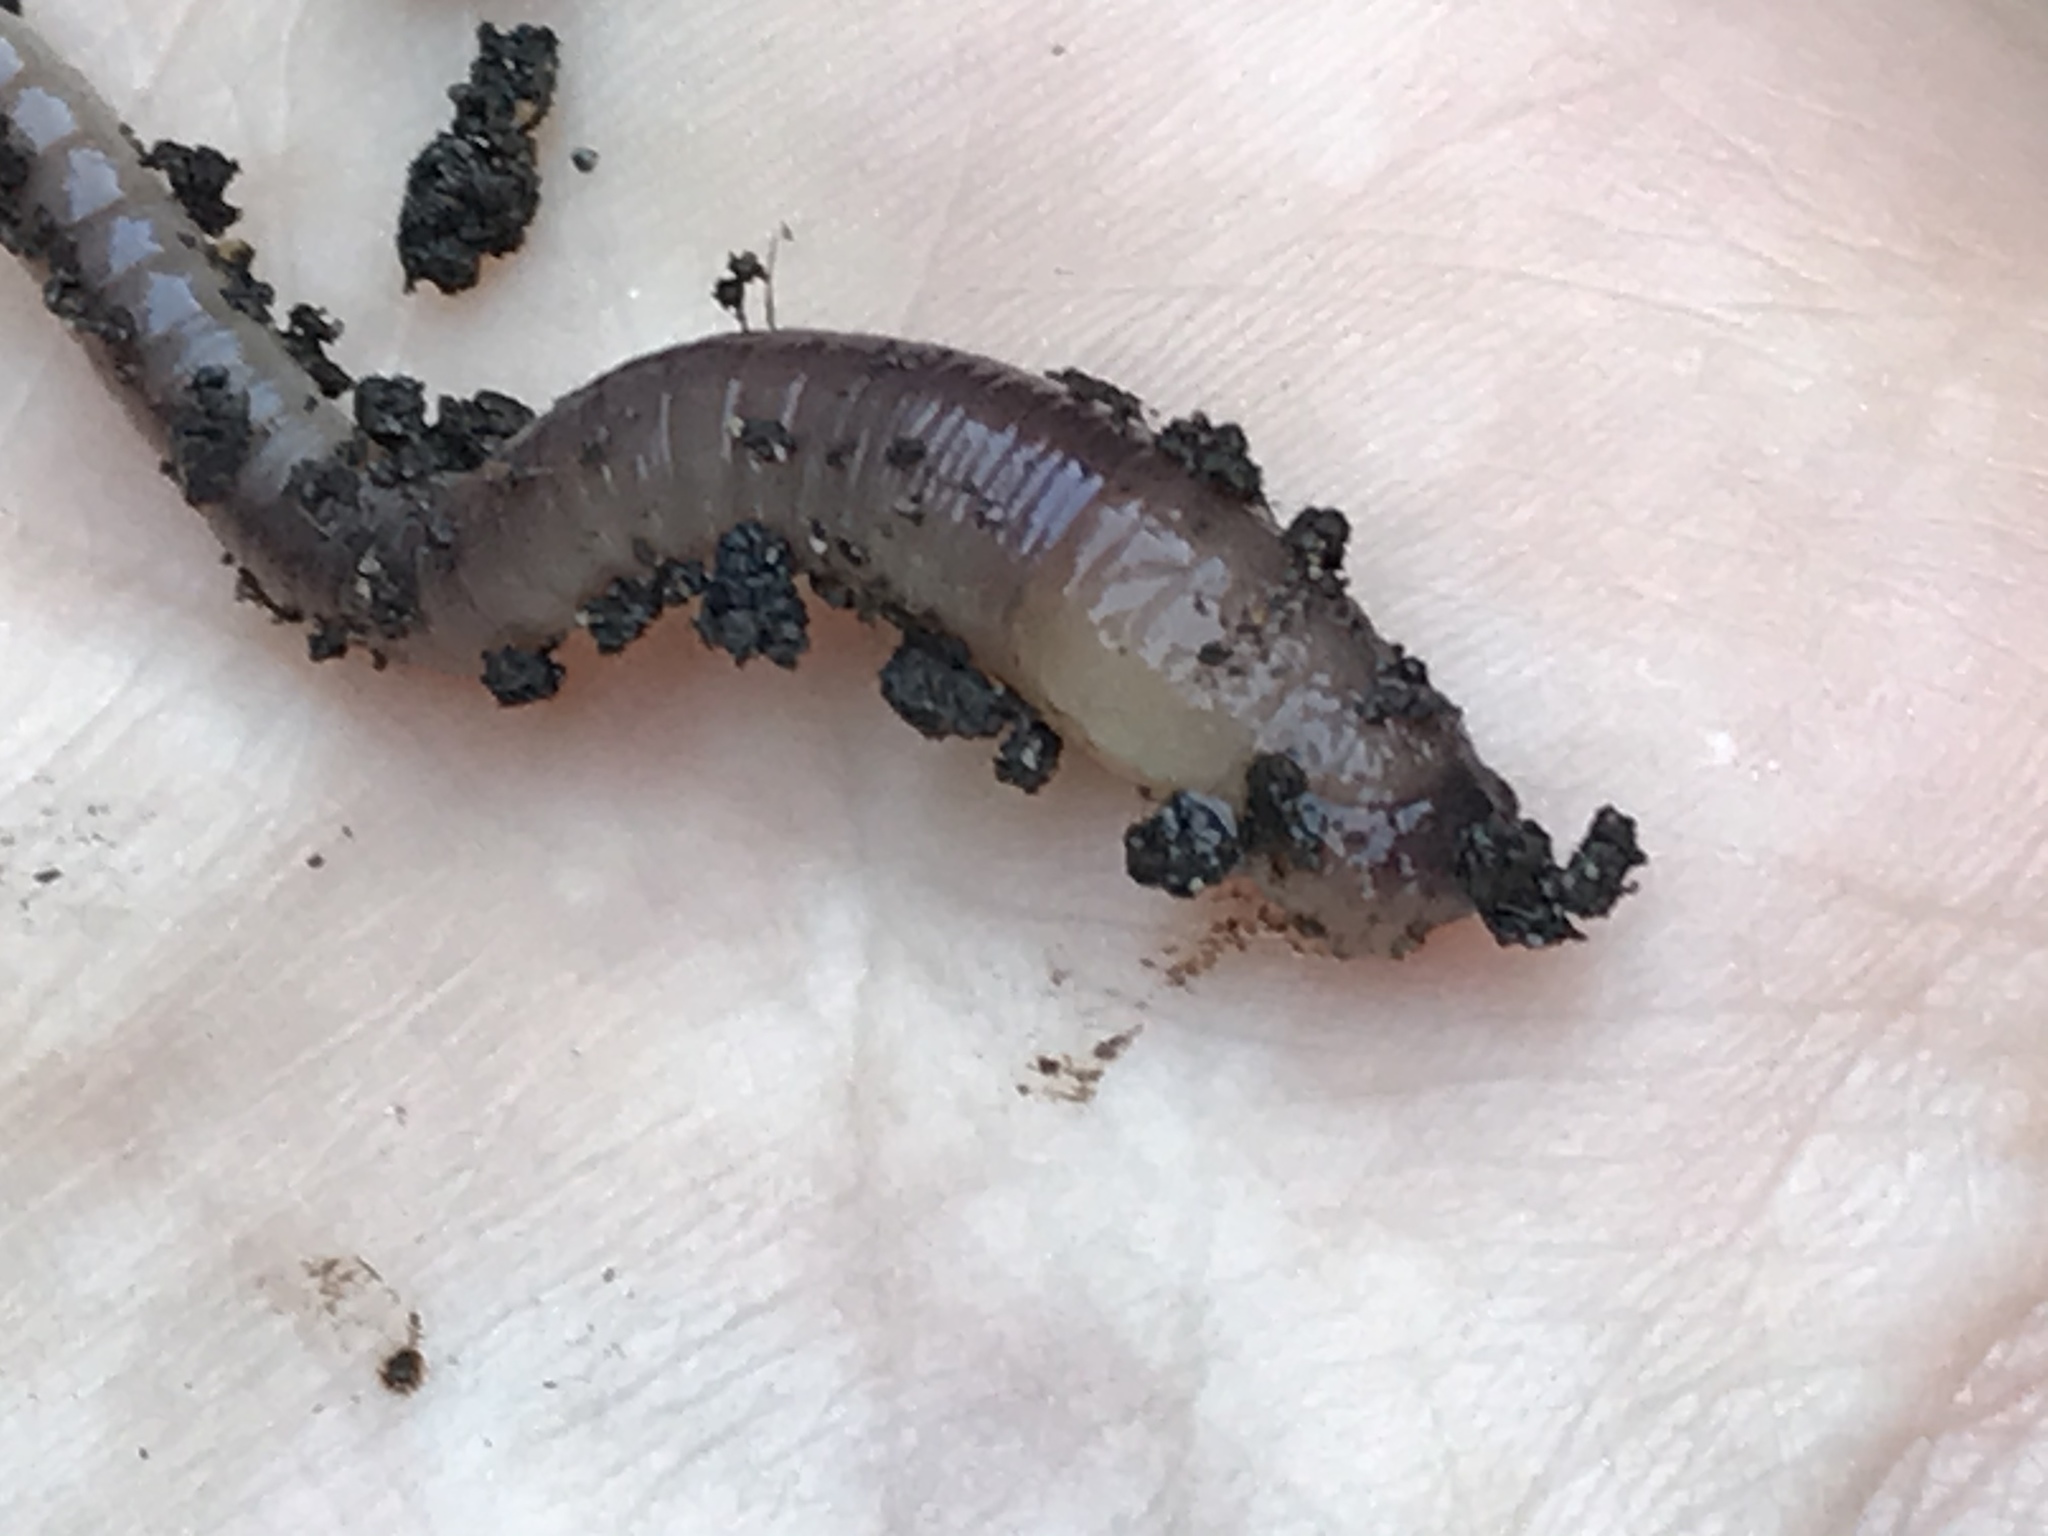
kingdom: Animalia
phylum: Annelida
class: Clitellata
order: Crassiclitellata
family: Lumbricidae
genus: Lumbricus
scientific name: Lumbricus terrestris
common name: Common earthworm
